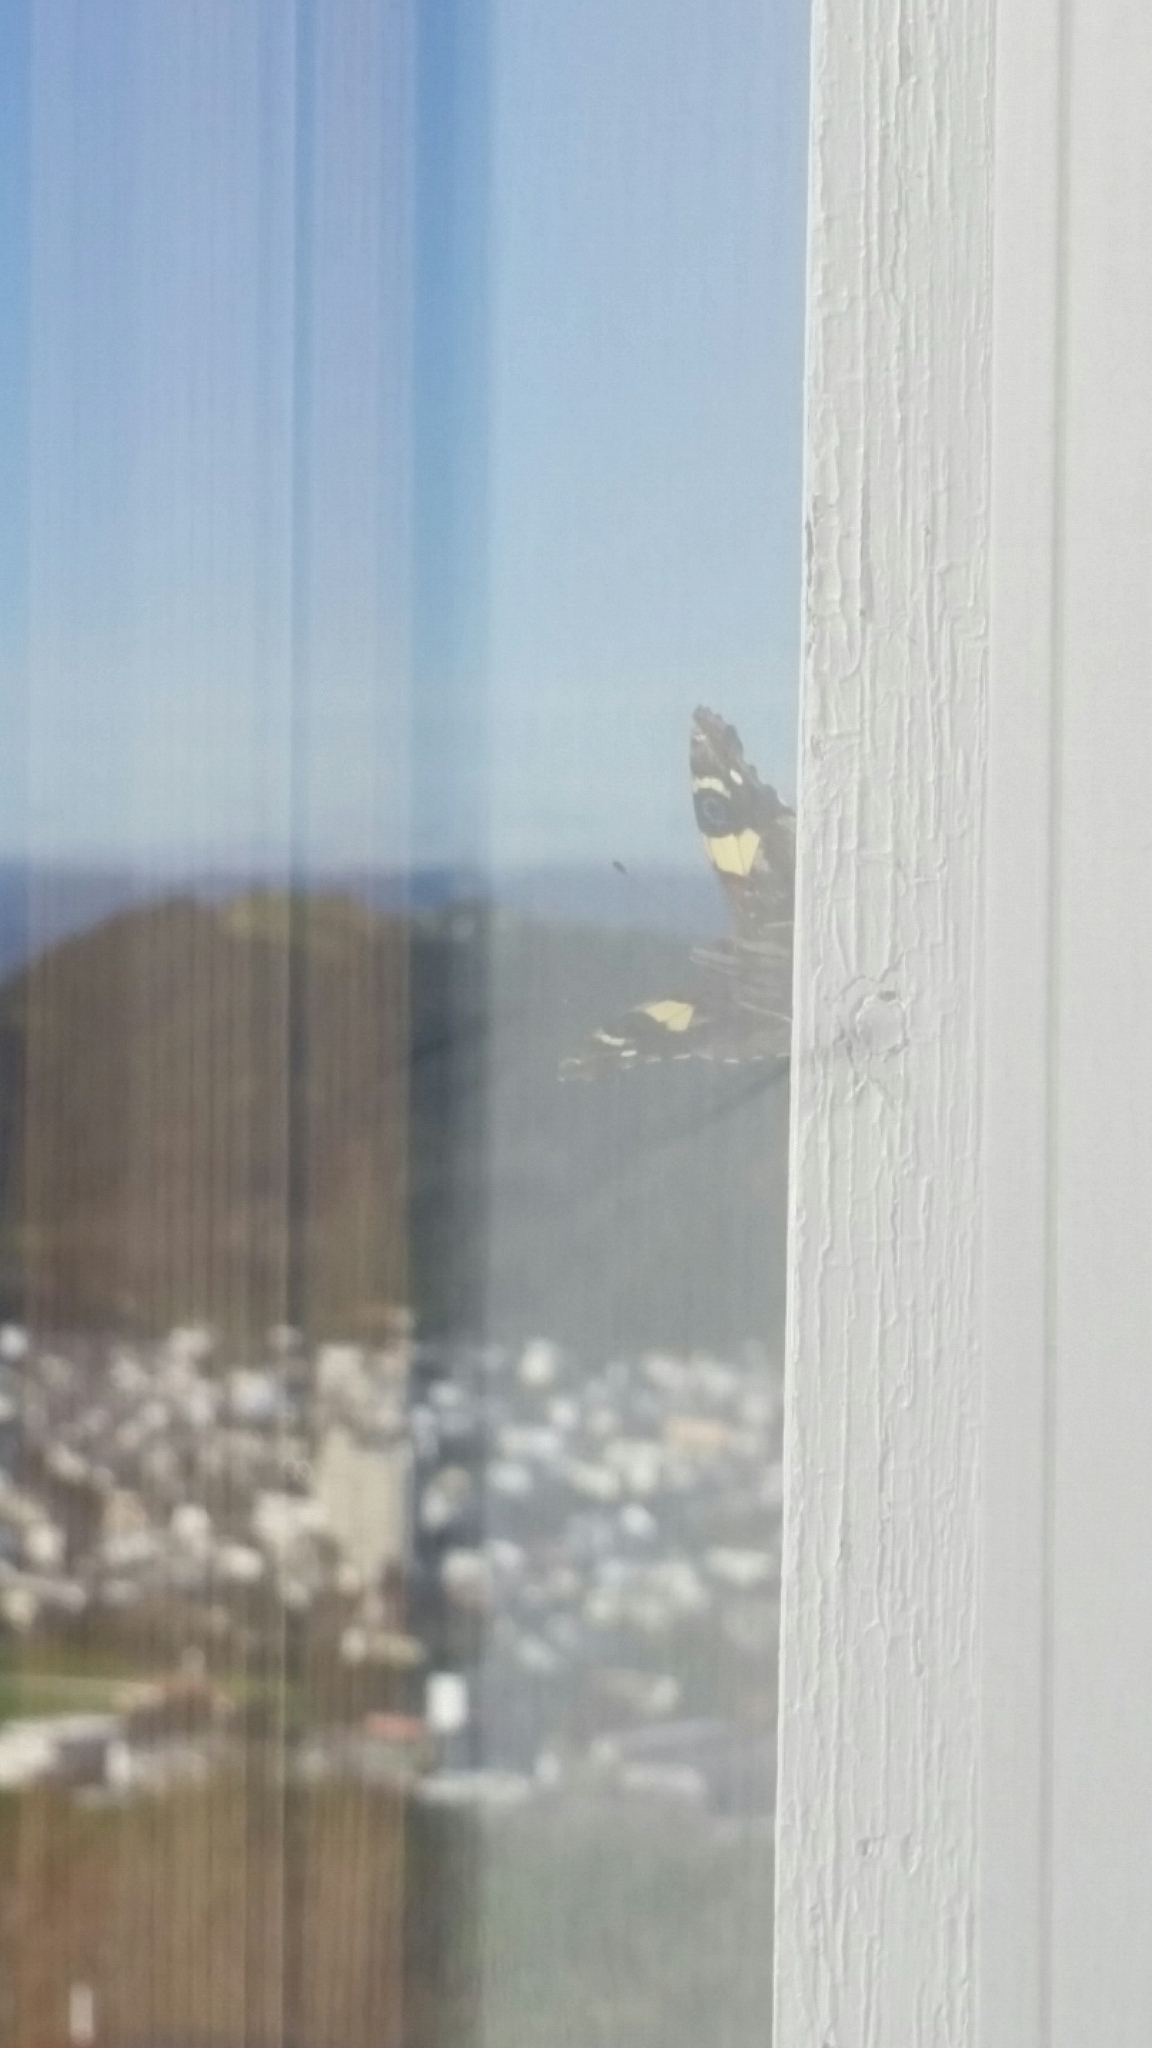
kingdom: Animalia
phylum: Arthropoda
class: Insecta
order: Lepidoptera
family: Nymphalidae
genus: Vanessa
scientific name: Vanessa itea
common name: Yellow admiral
